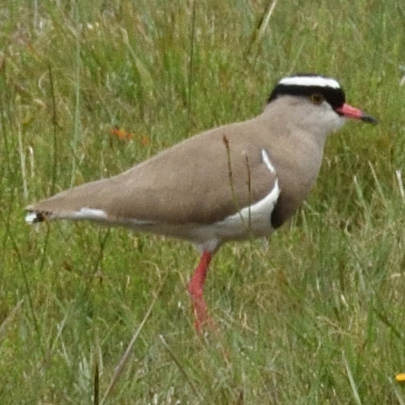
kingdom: Animalia
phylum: Chordata
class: Aves
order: Charadriiformes
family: Charadriidae
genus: Vanellus
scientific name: Vanellus coronatus
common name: Crowned lapwing
